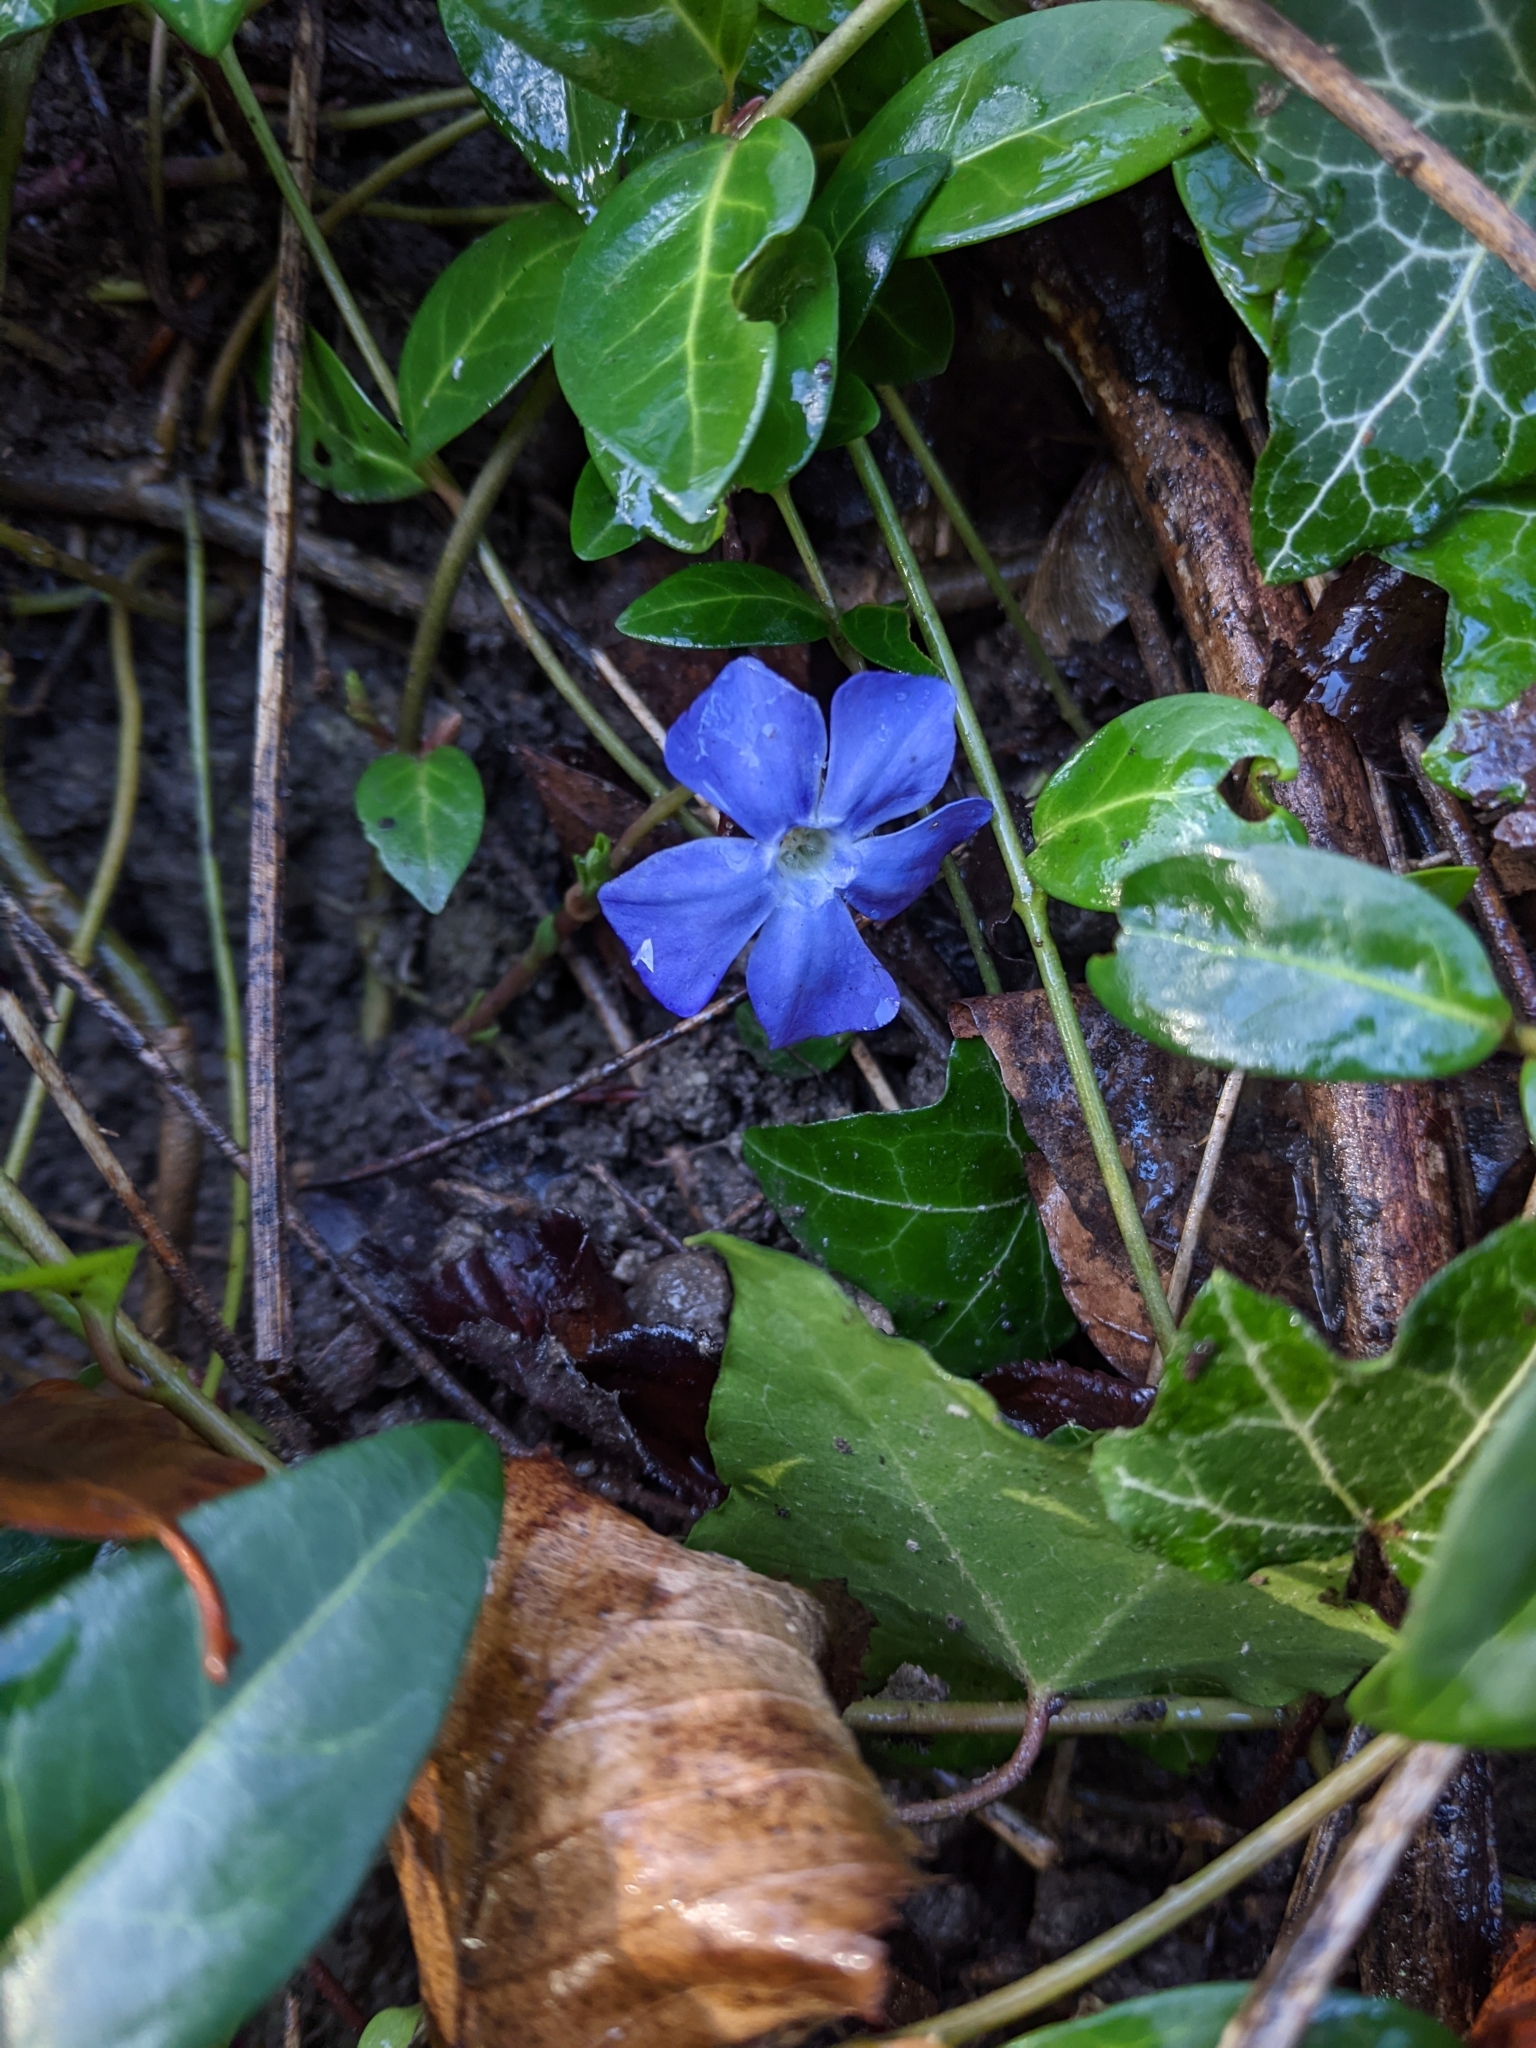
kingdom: Plantae
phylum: Tracheophyta
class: Magnoliopsida
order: Gentianales
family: Apocynaceae
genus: Vinca
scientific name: Vinca minor
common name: Lesser periwinkle
